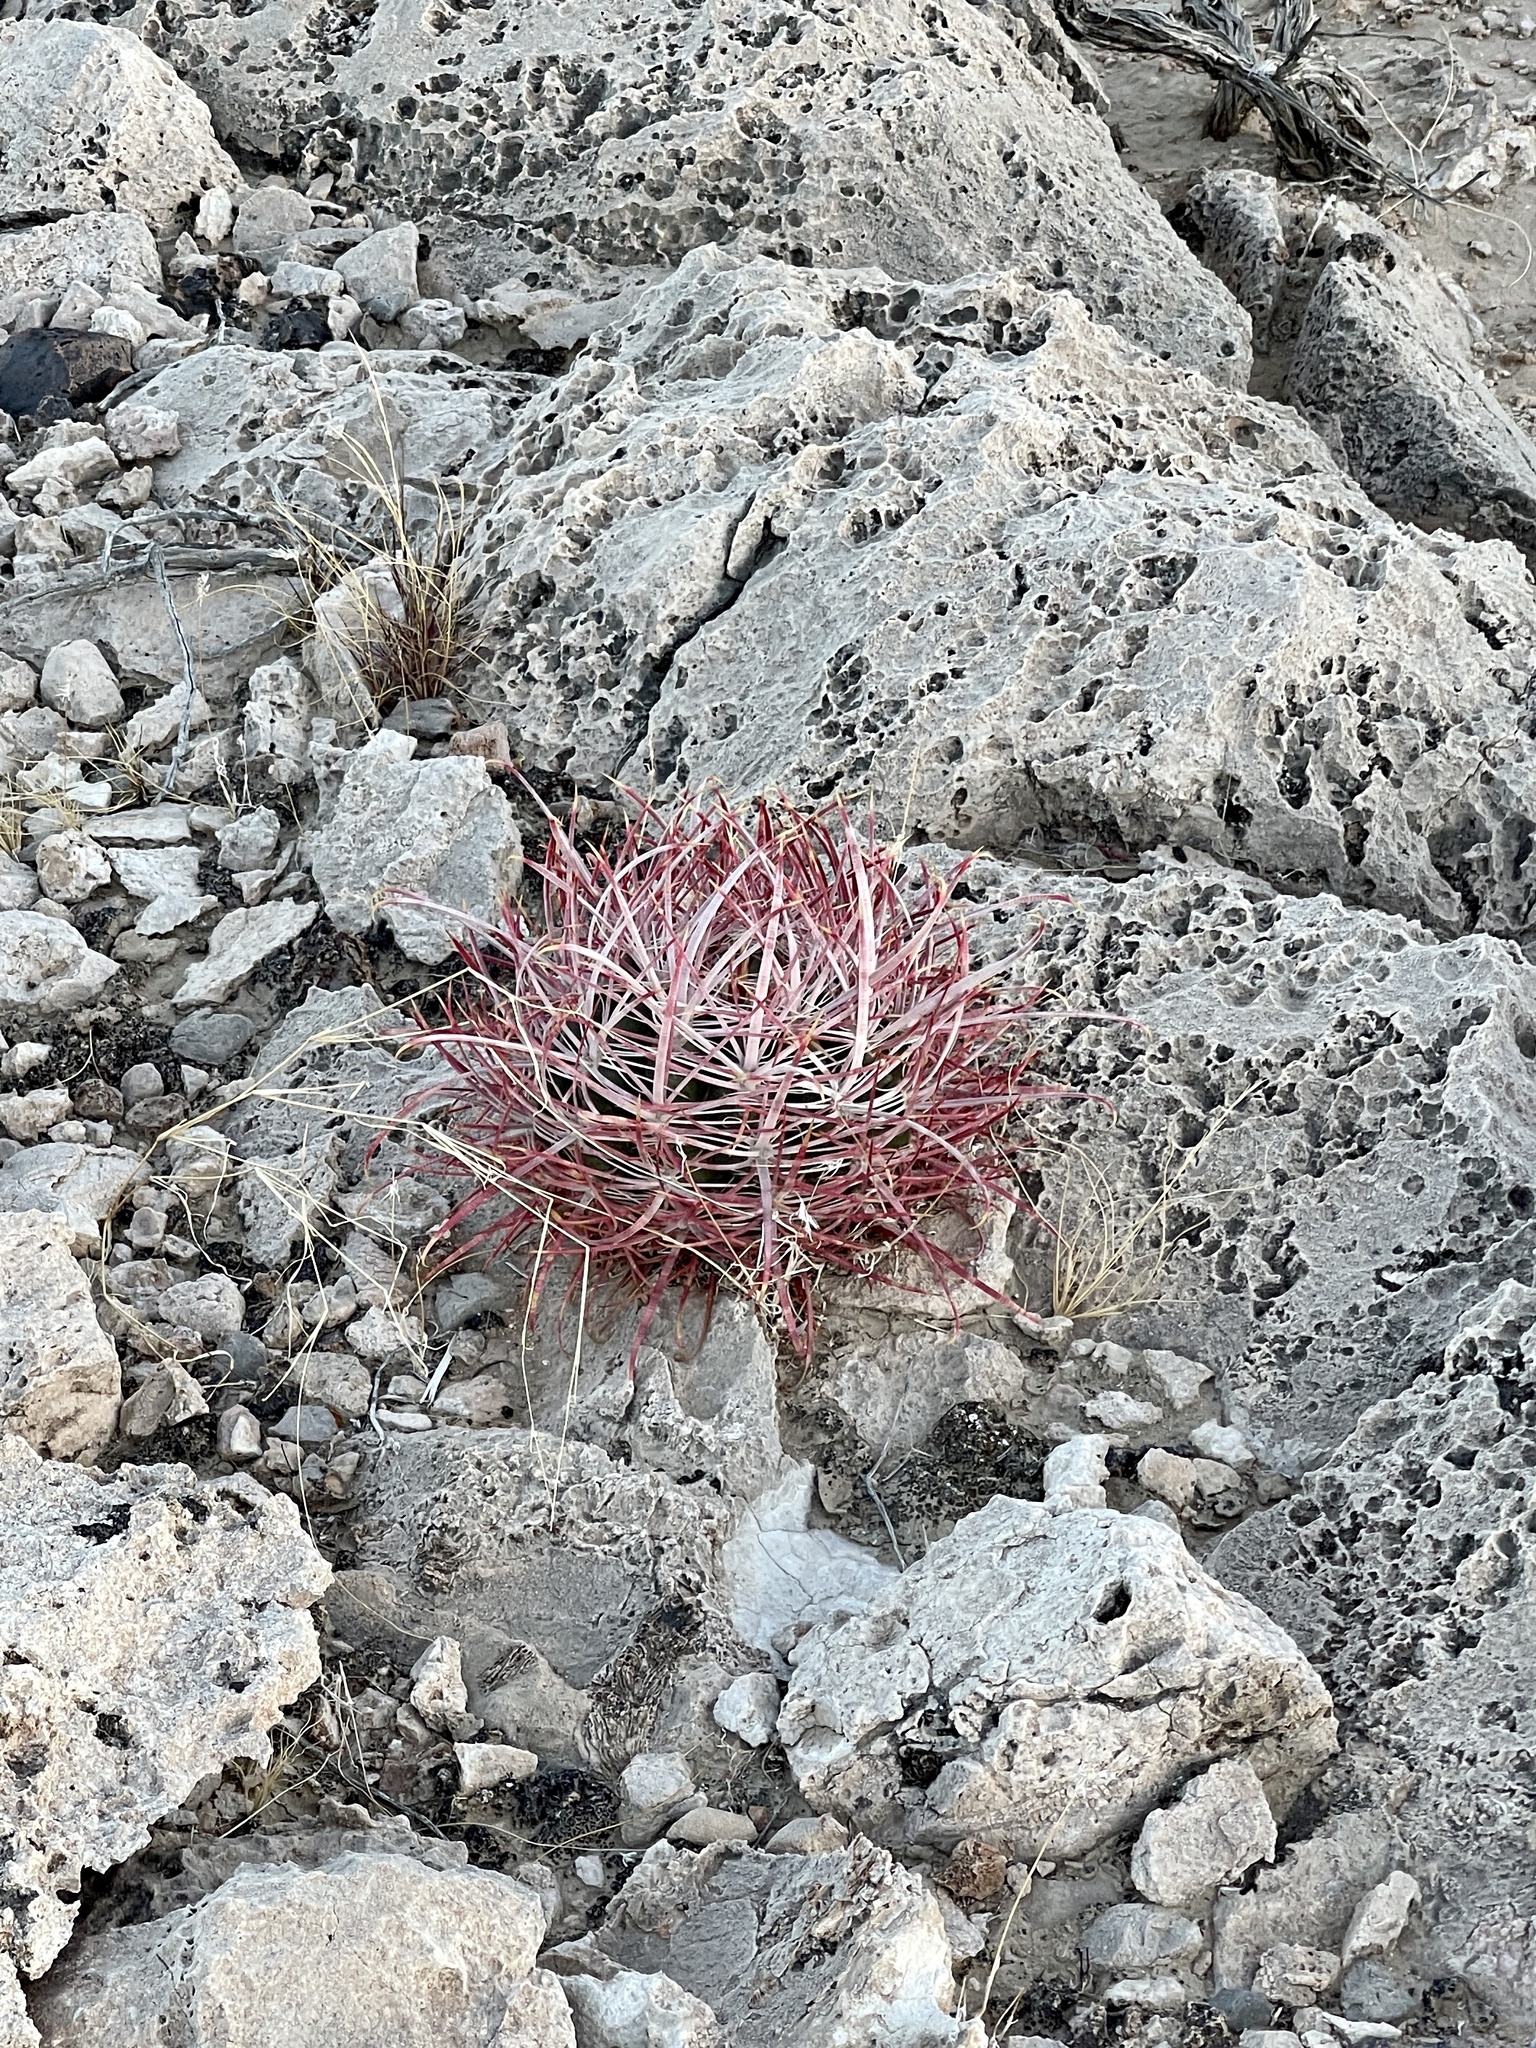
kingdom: Plantae
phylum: Tracheophyta
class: Magnoliopsida
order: Caryophyllales
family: Cactaceae
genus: Ferocactus
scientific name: Ferocactus cylindraceus
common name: California barrel cactus
